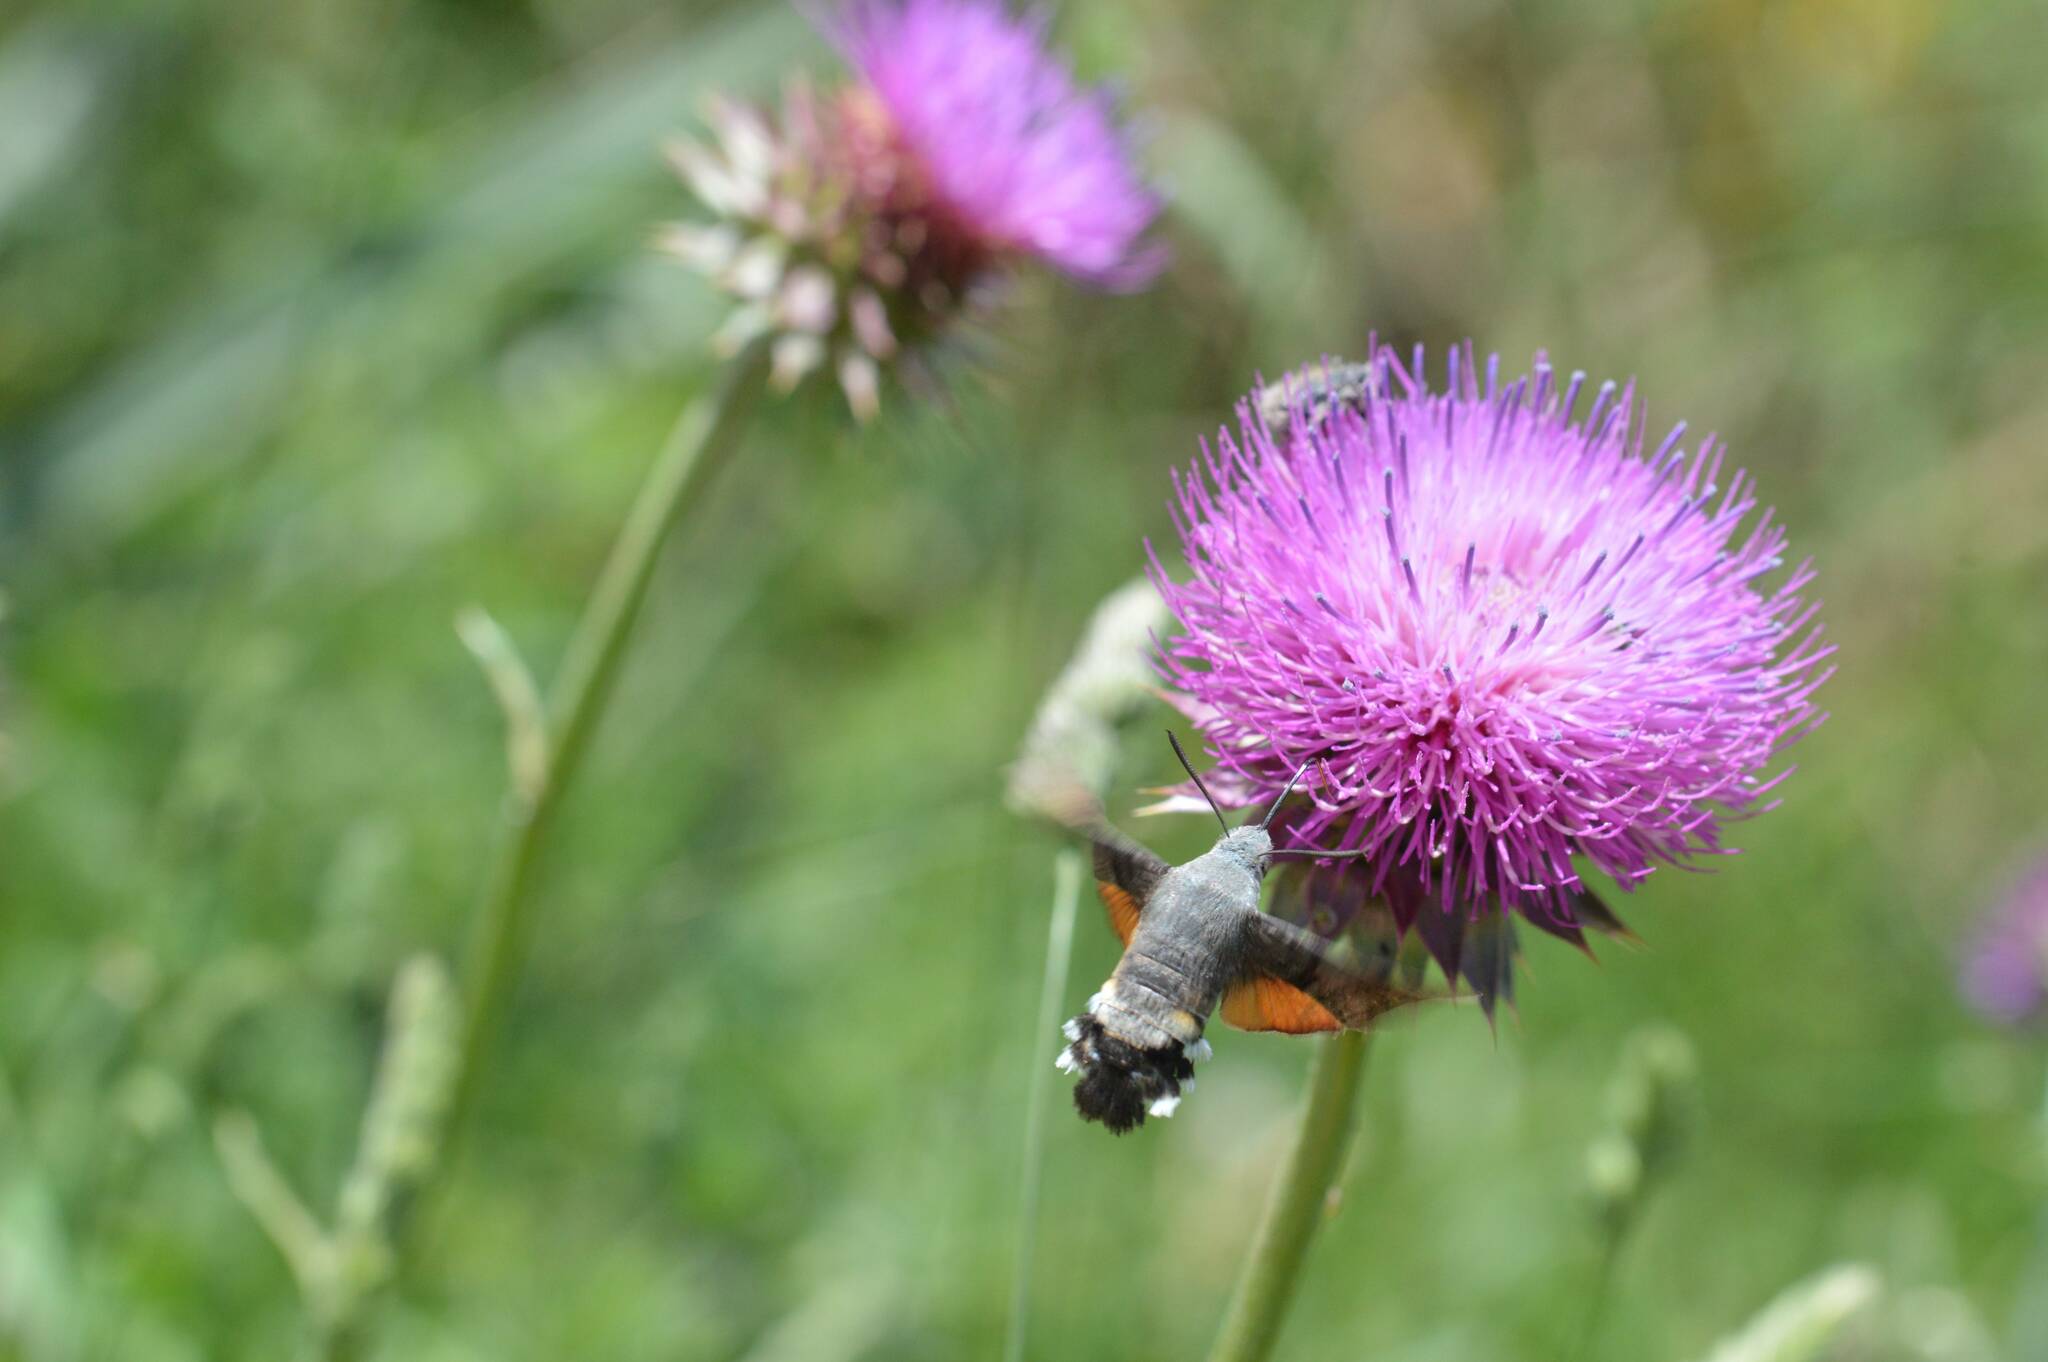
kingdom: Animalia
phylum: Arthropoda
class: Insecta
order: Lepidoptera
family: Sphingidae
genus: Macroglossum
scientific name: Macroglossum stellatarum
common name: Humming-bird hawk-moth
